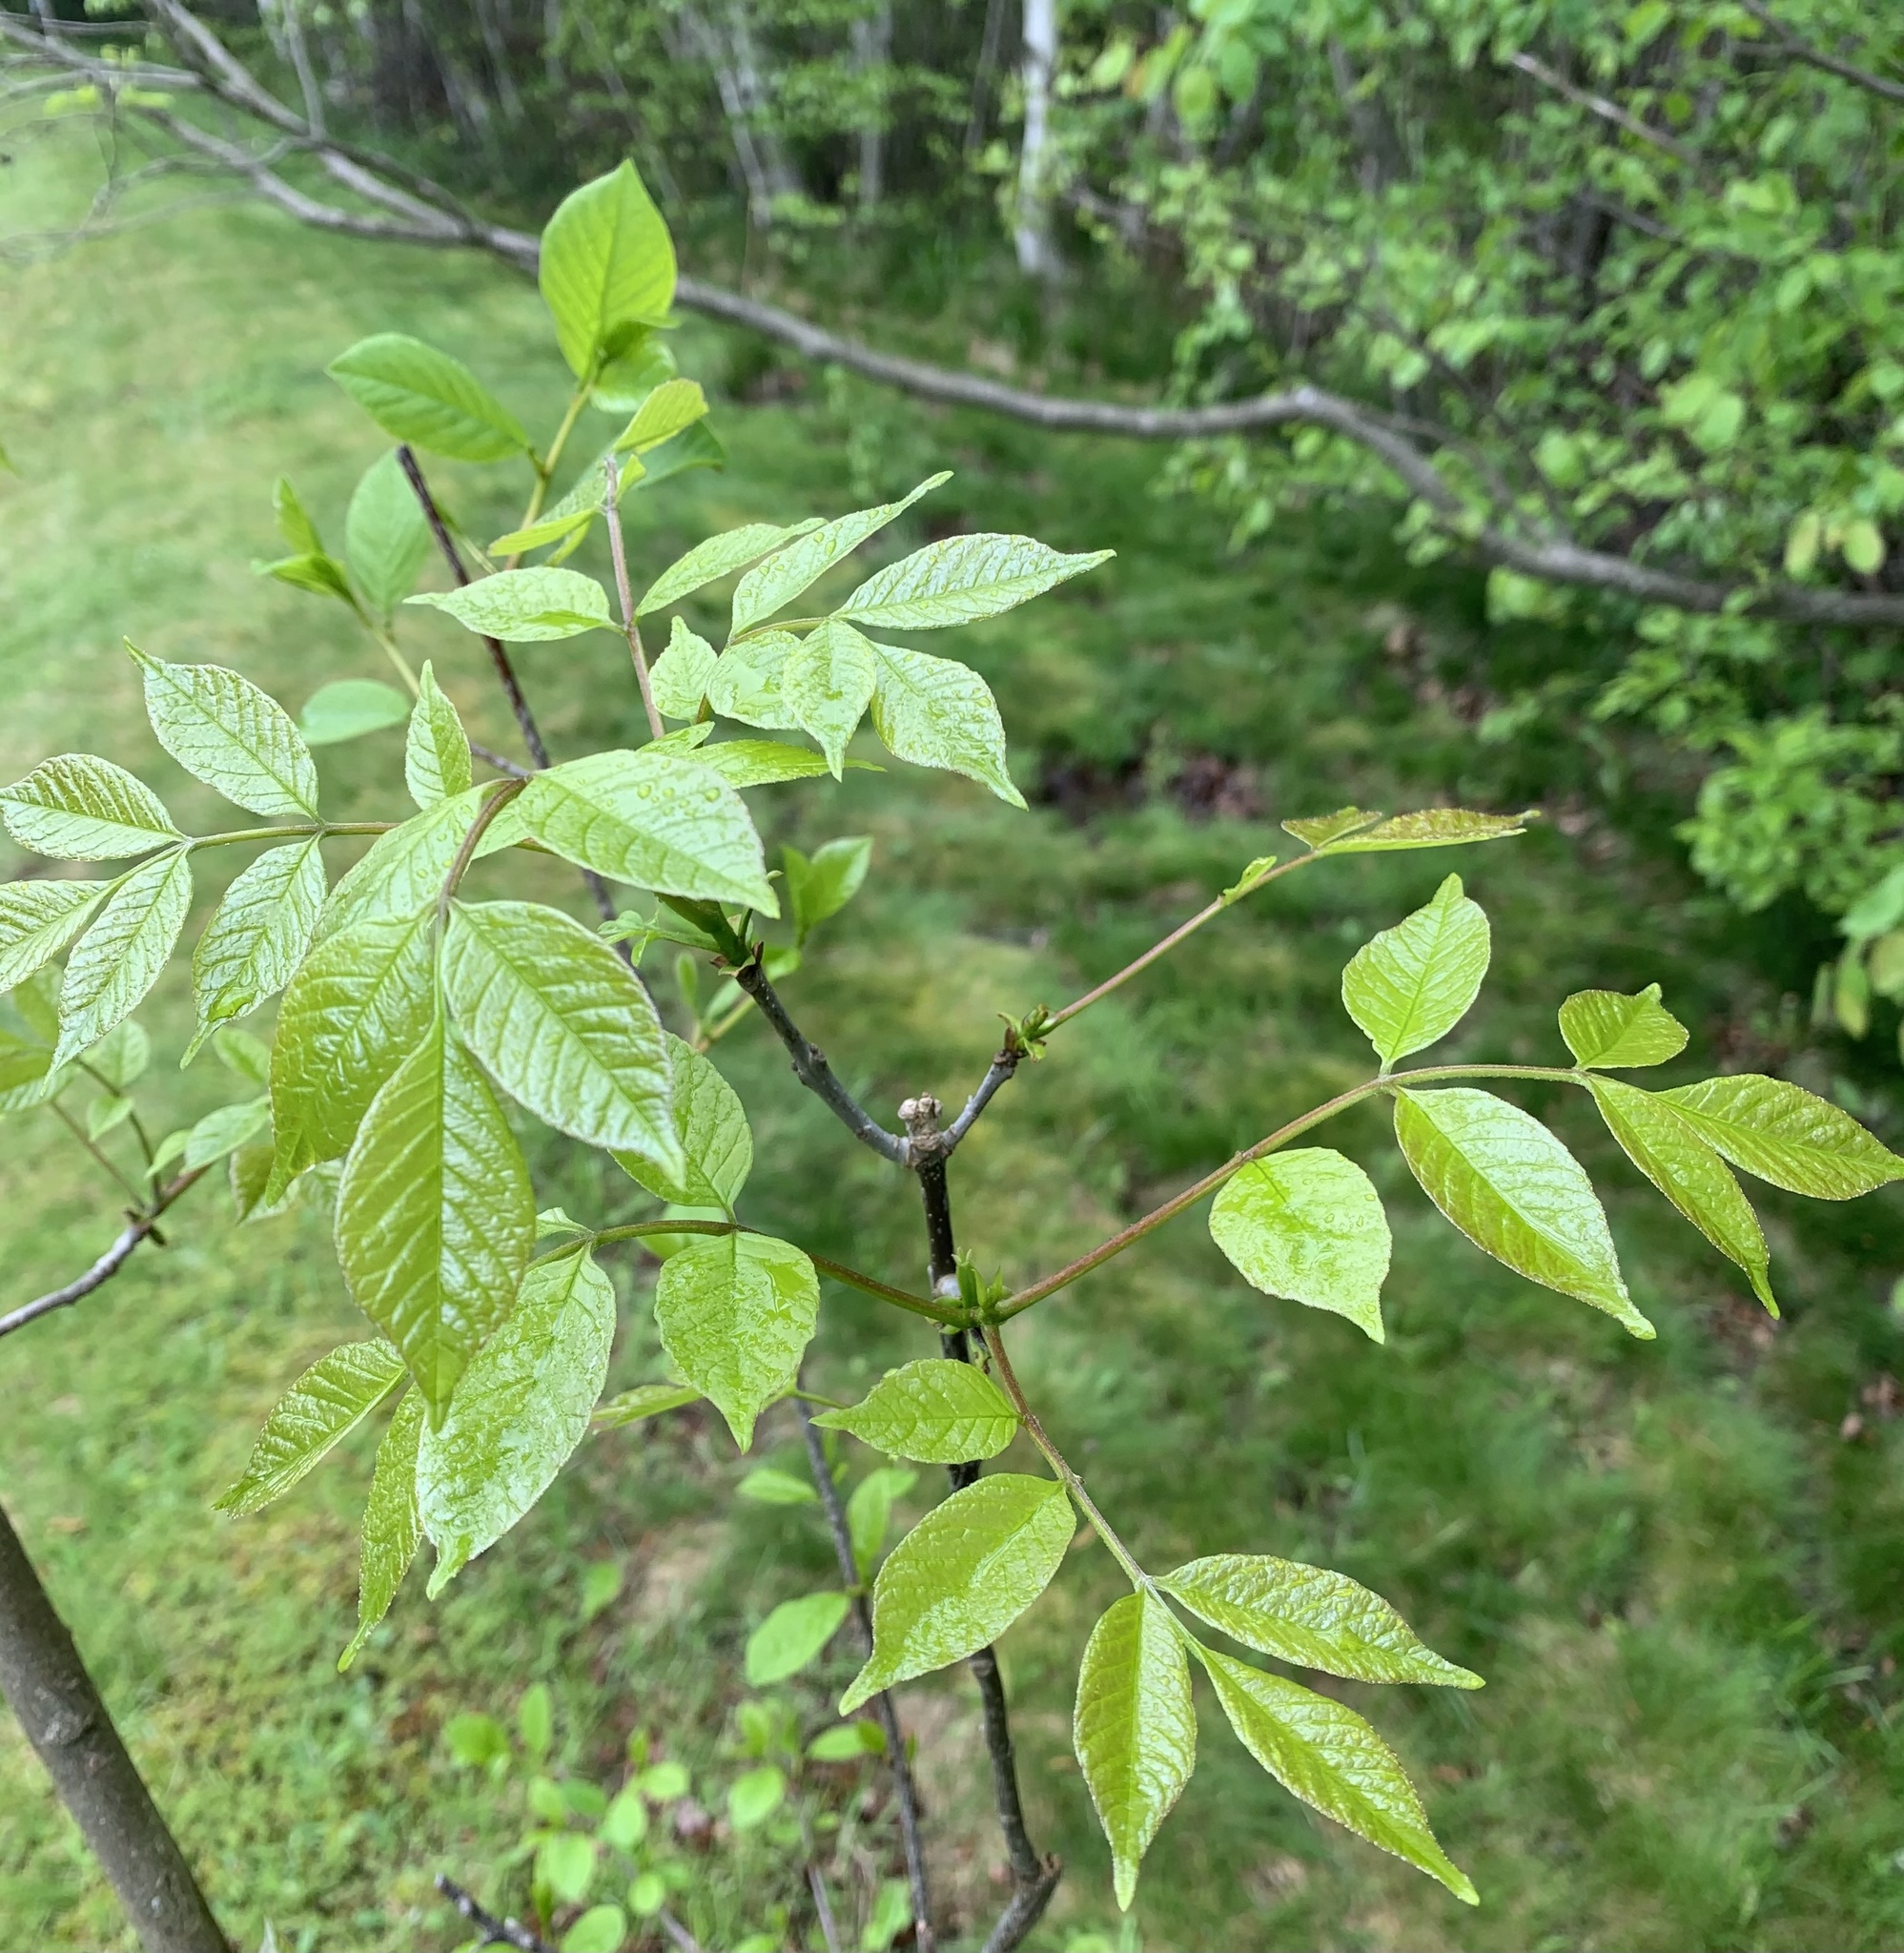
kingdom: Plantae
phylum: Tracheophyta
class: Magnoliopsida
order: Ericales
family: Ericaceae
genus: Epigaea
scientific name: Epigaea repens
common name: Gravelroot
